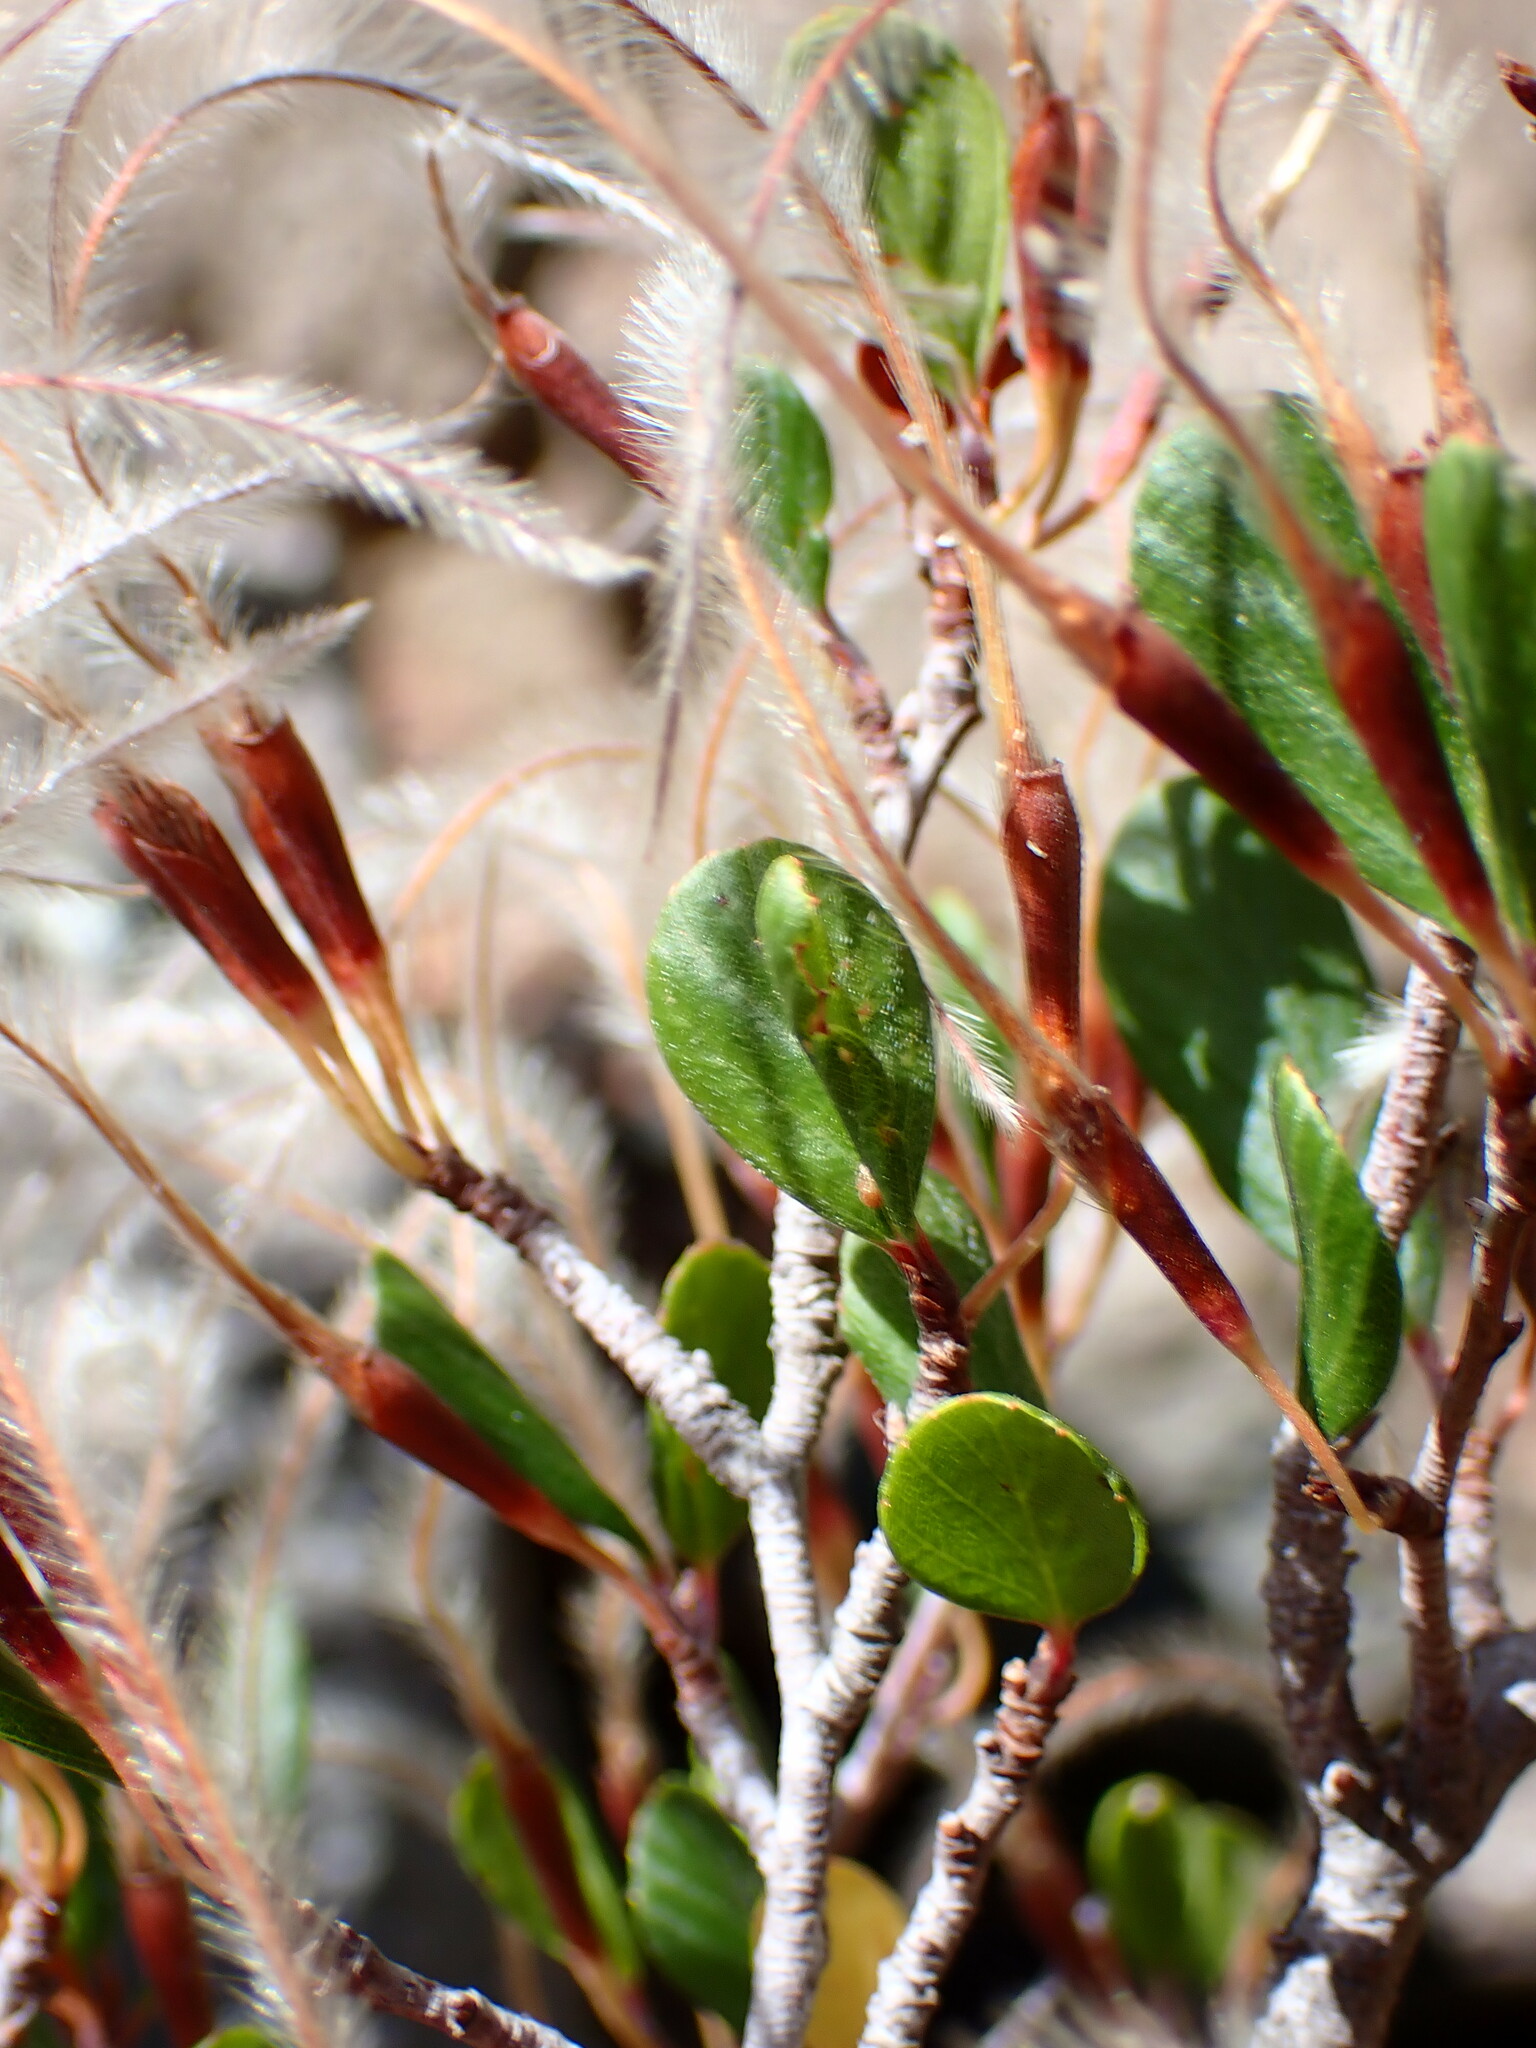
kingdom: Plantae
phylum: Tracheophyta
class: Magnoliopsida
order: Rosales
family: Rosaceae
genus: Cercocarpus
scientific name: Cercocarpus montanus
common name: Alder-leaf cercocarpus
